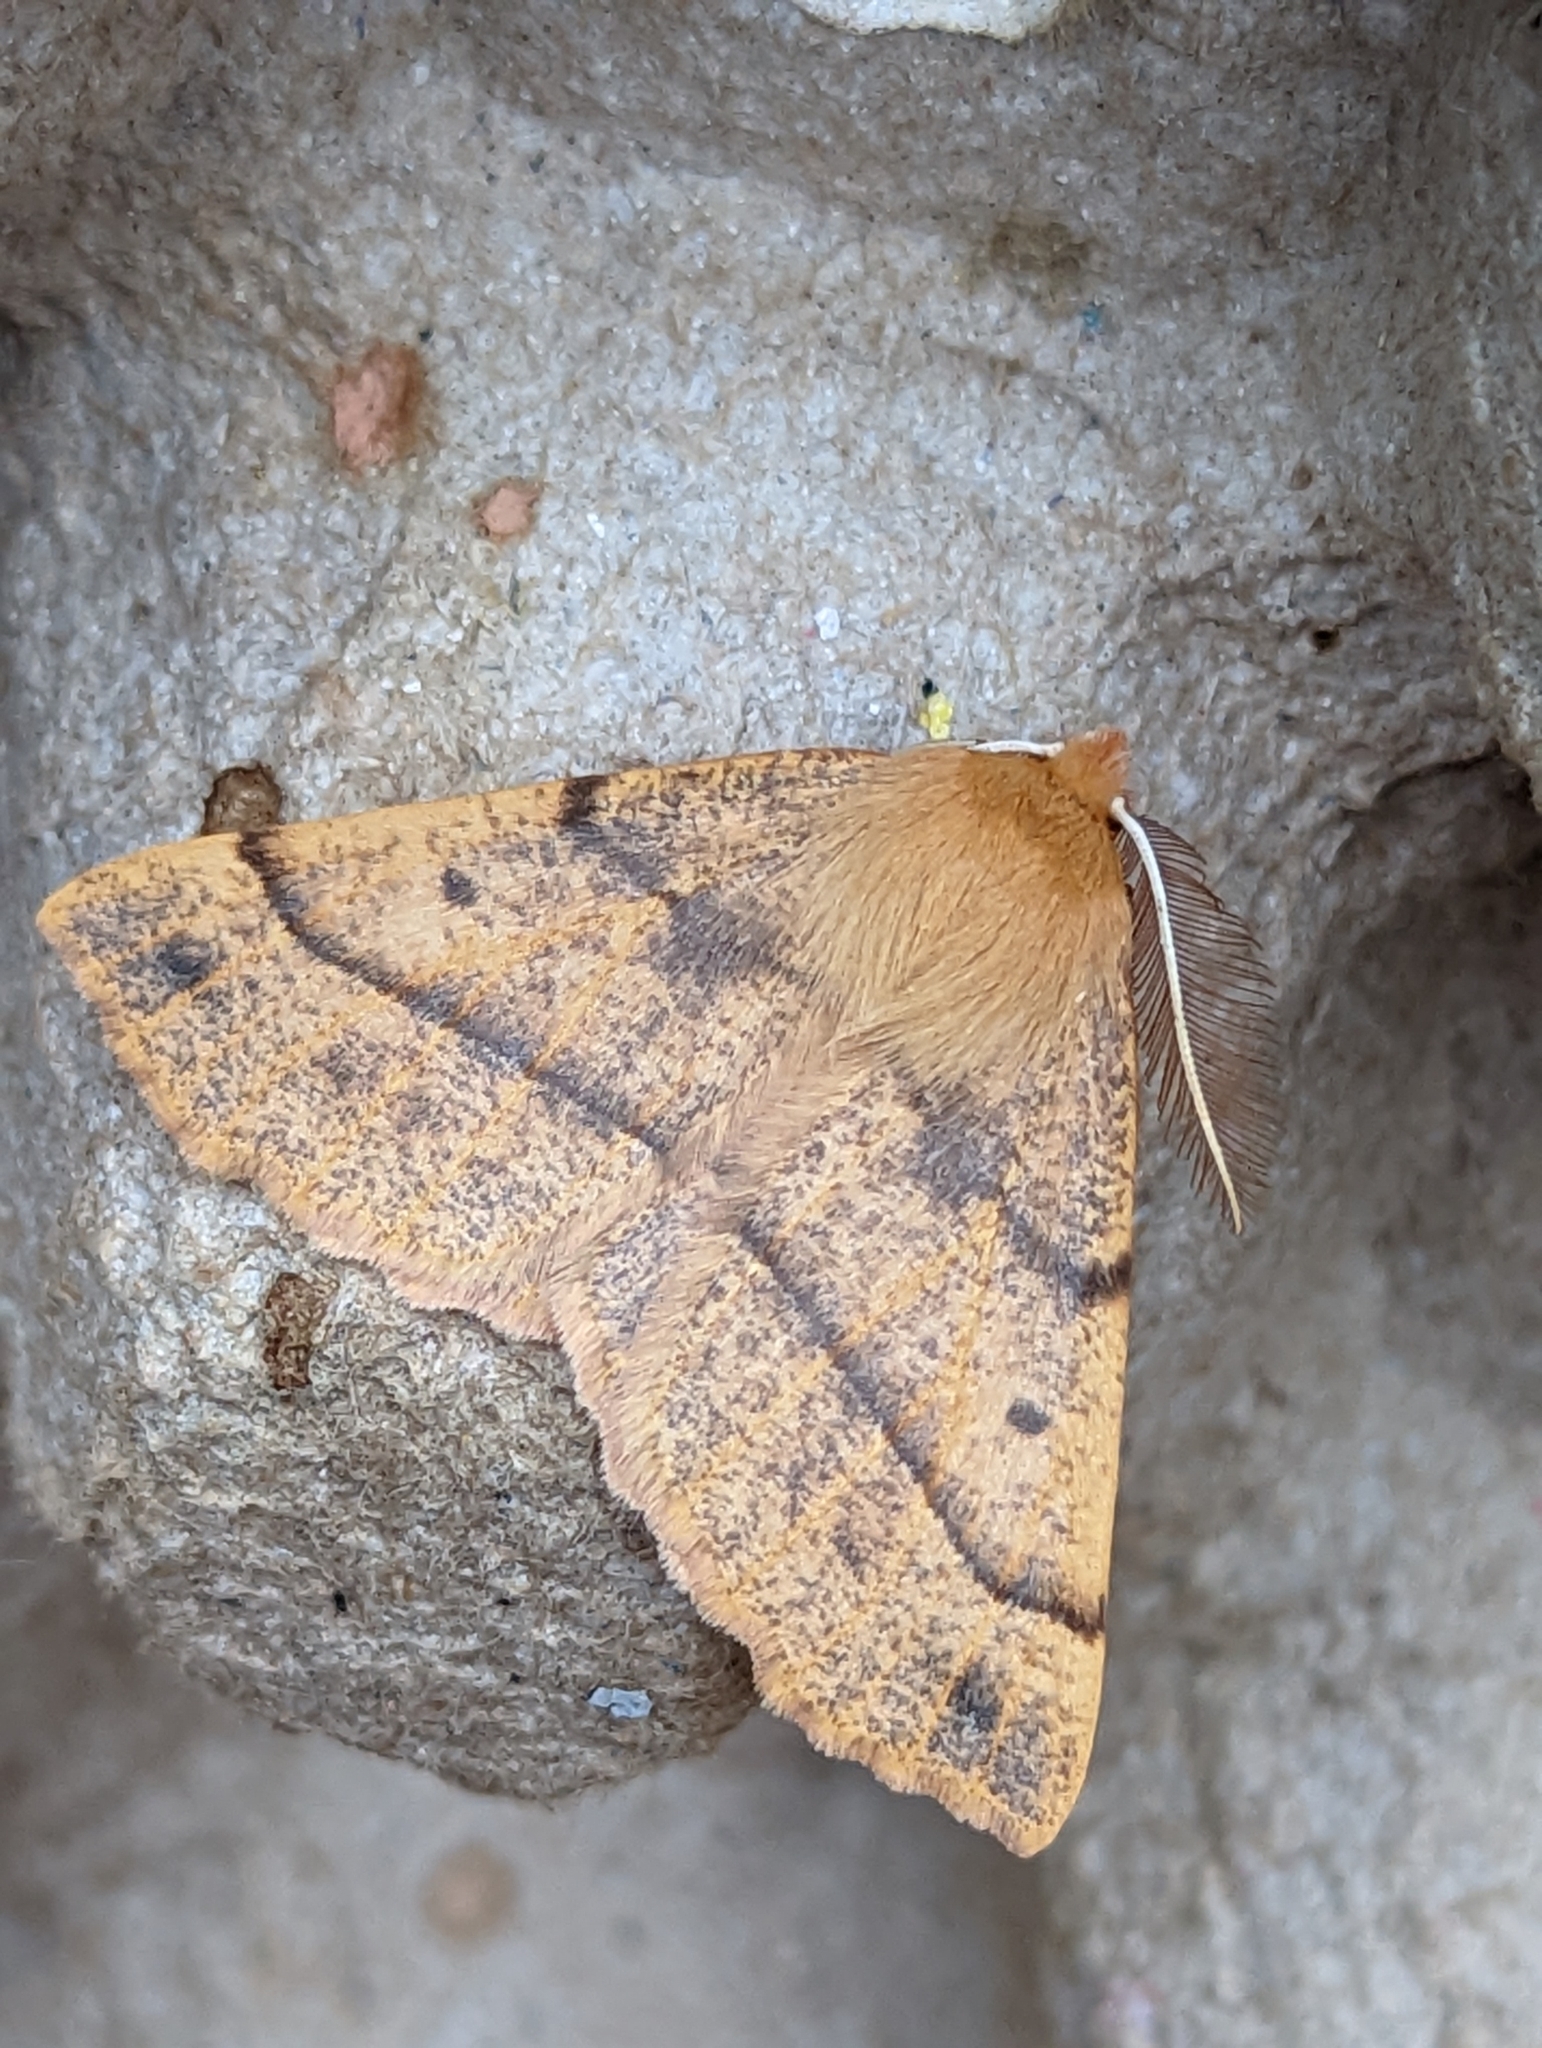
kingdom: Animalia
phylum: Arthropoda
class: Insecta
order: Lepidoptera
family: Geometridae
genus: Colotois
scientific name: Colotois pennaria
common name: Feathered thorn
